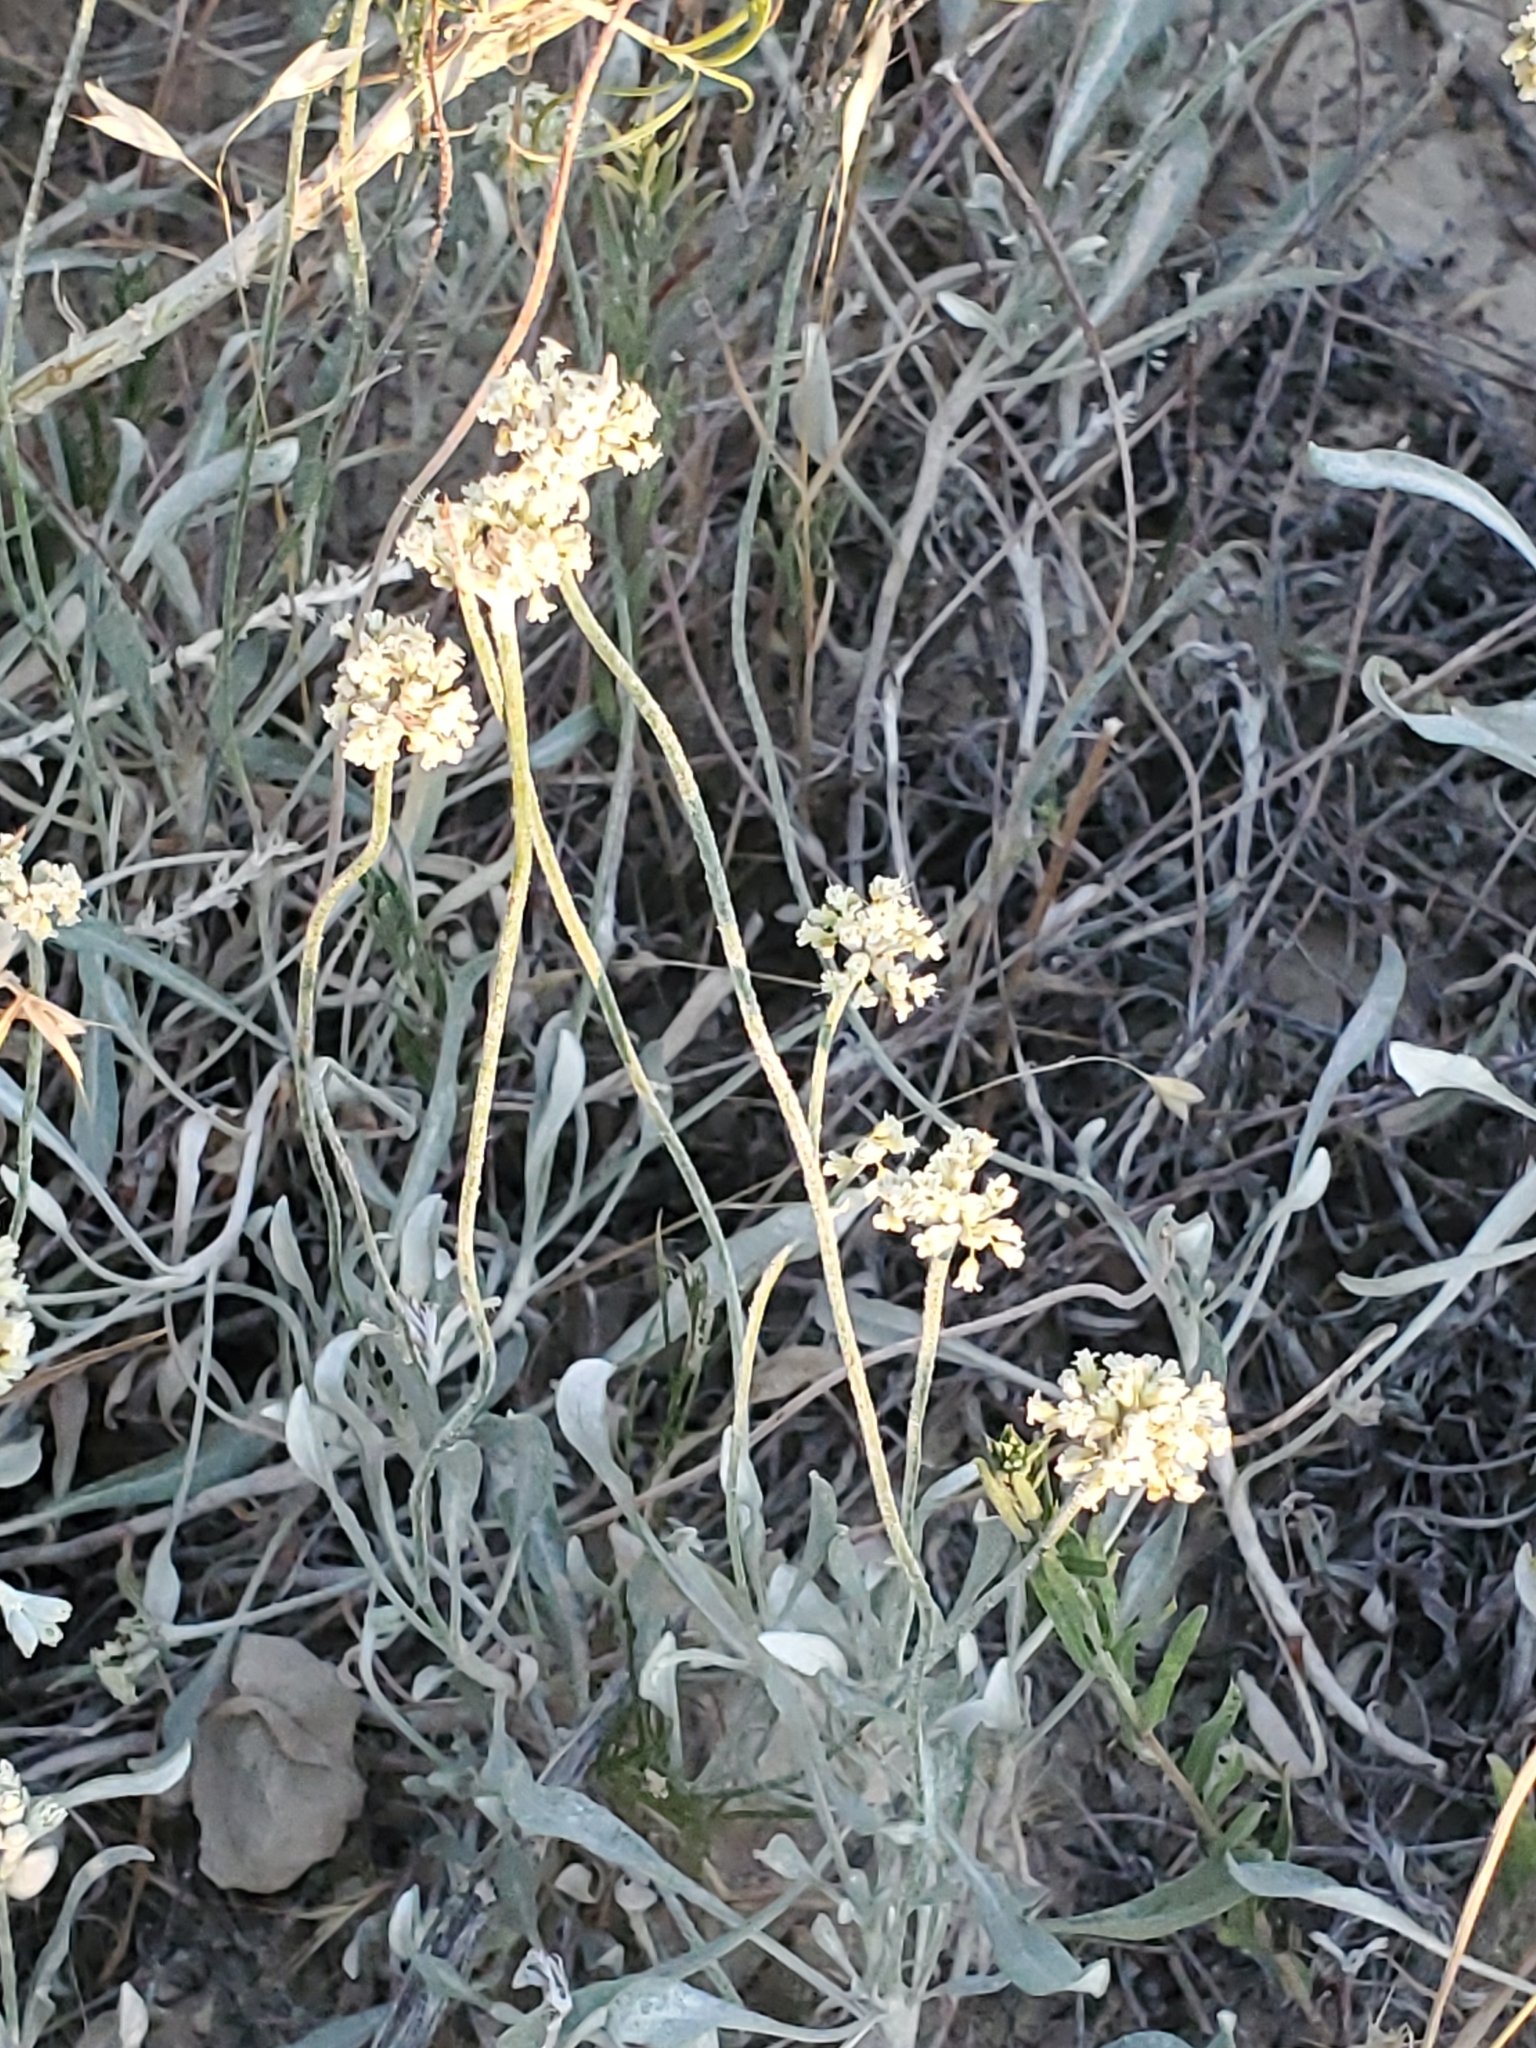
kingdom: Plantae
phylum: Tracheophyta
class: Magnoliopsida
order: Caryophyllales
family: Polygonaceae
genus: Eriogonum
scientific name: Eriogonum pauciflorum
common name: Few-flower wild buckwheat
